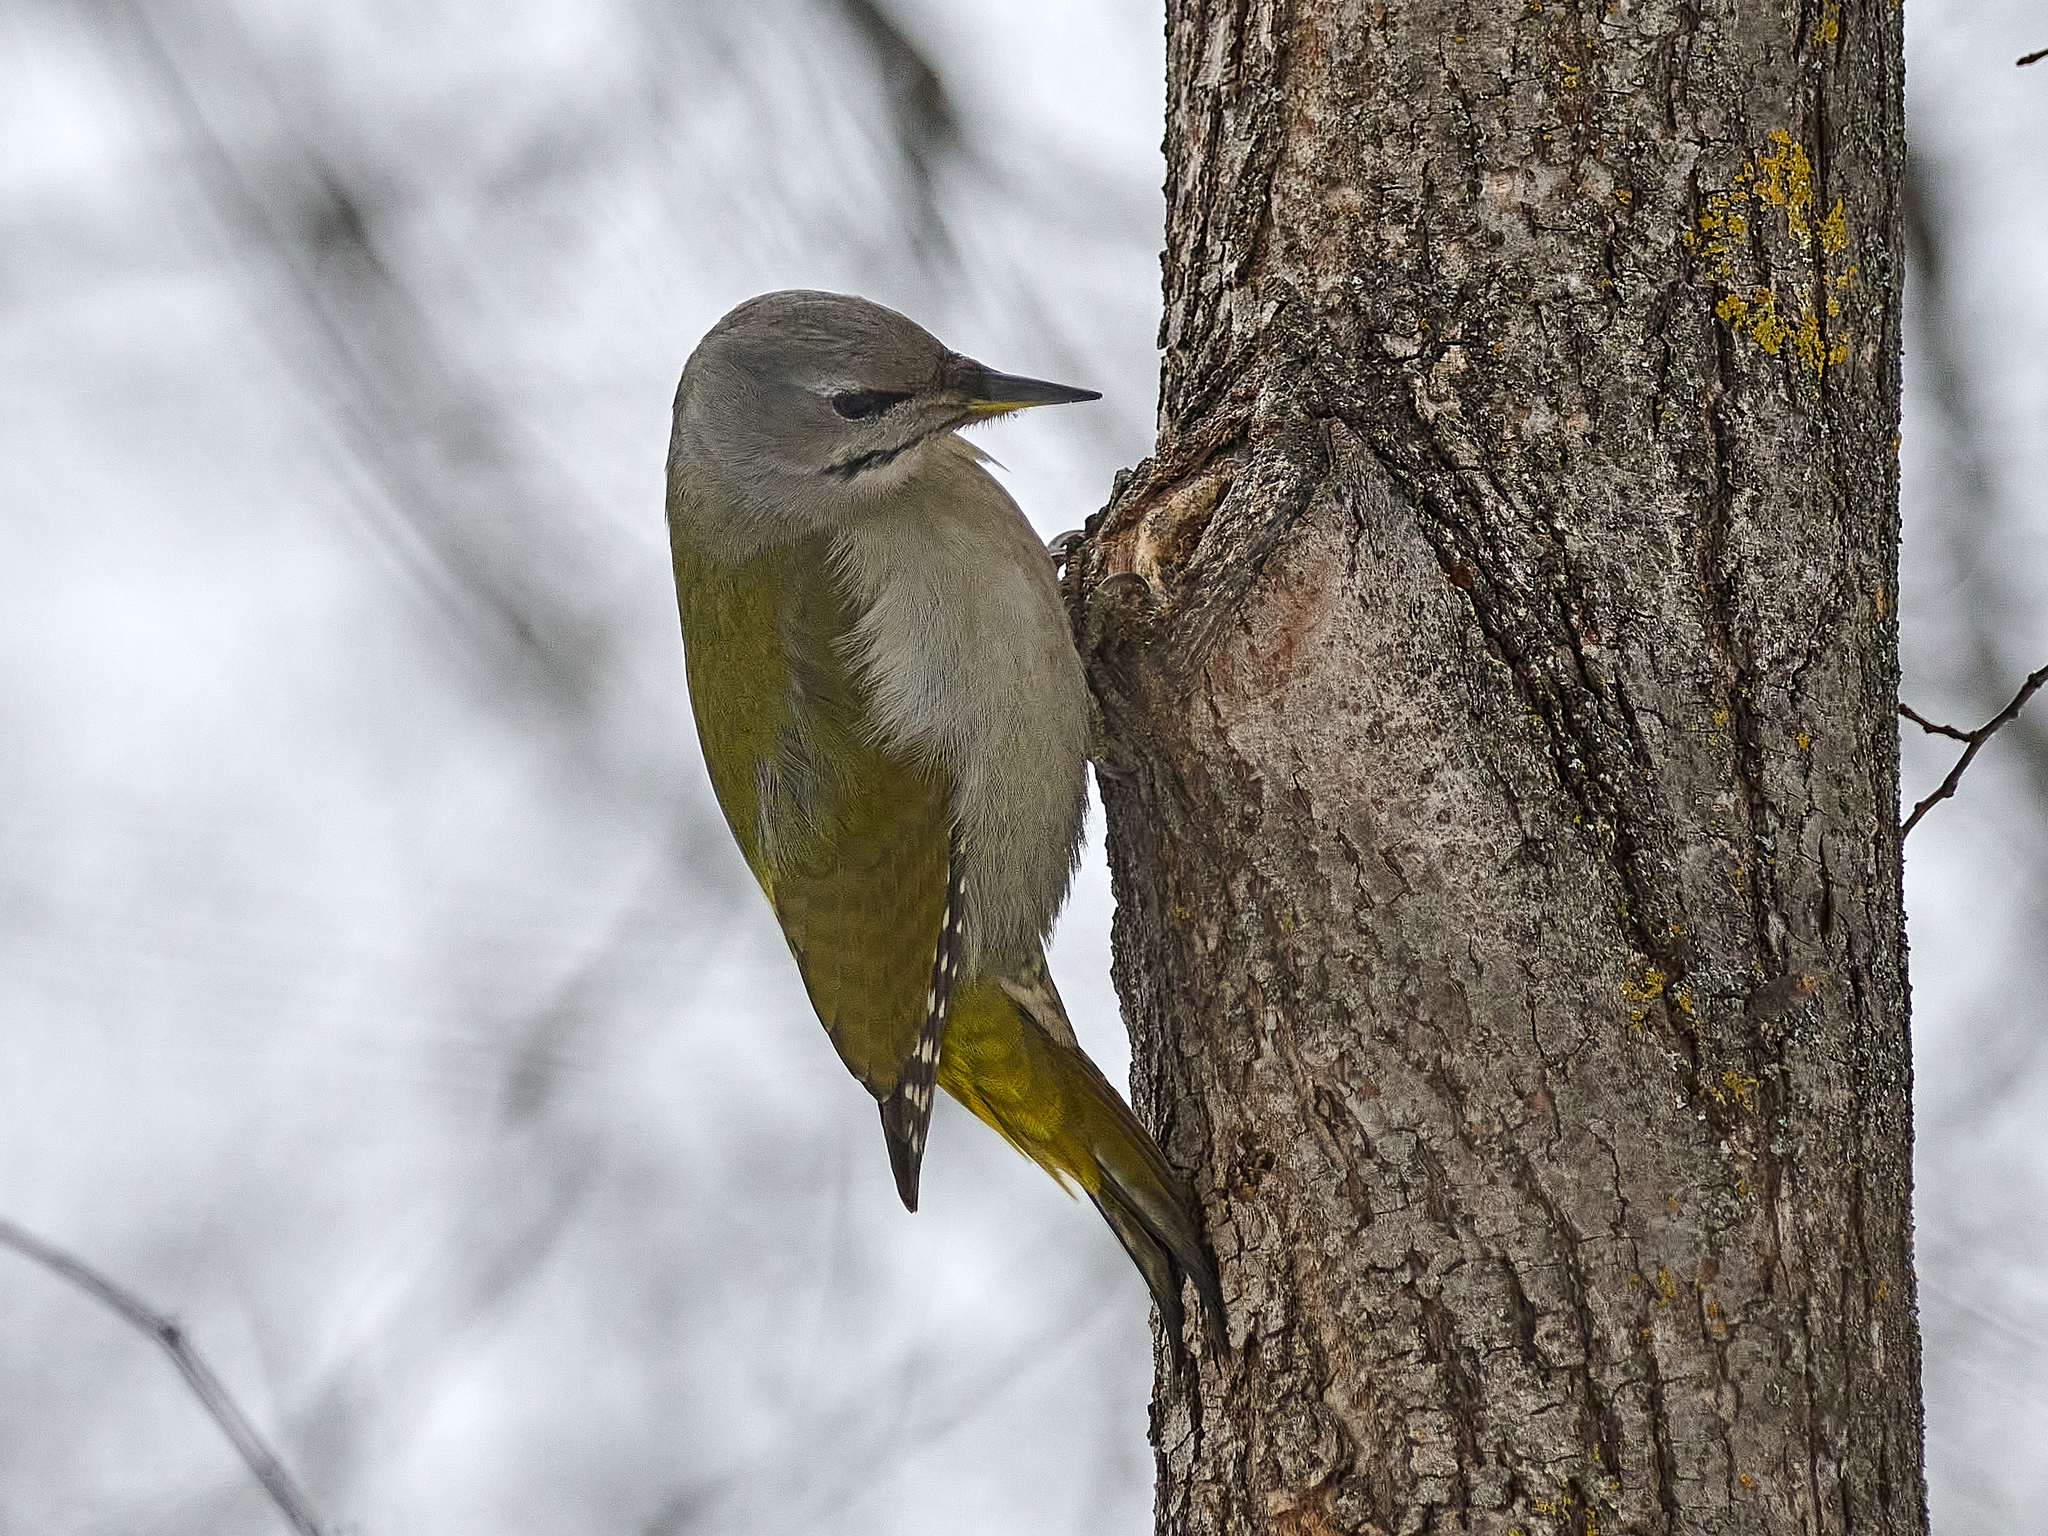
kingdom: Animalia
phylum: Chordata
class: Aves
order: Piciformes
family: Picidae
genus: Picus
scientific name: Picus canus
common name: Grey-headed woodpecker
